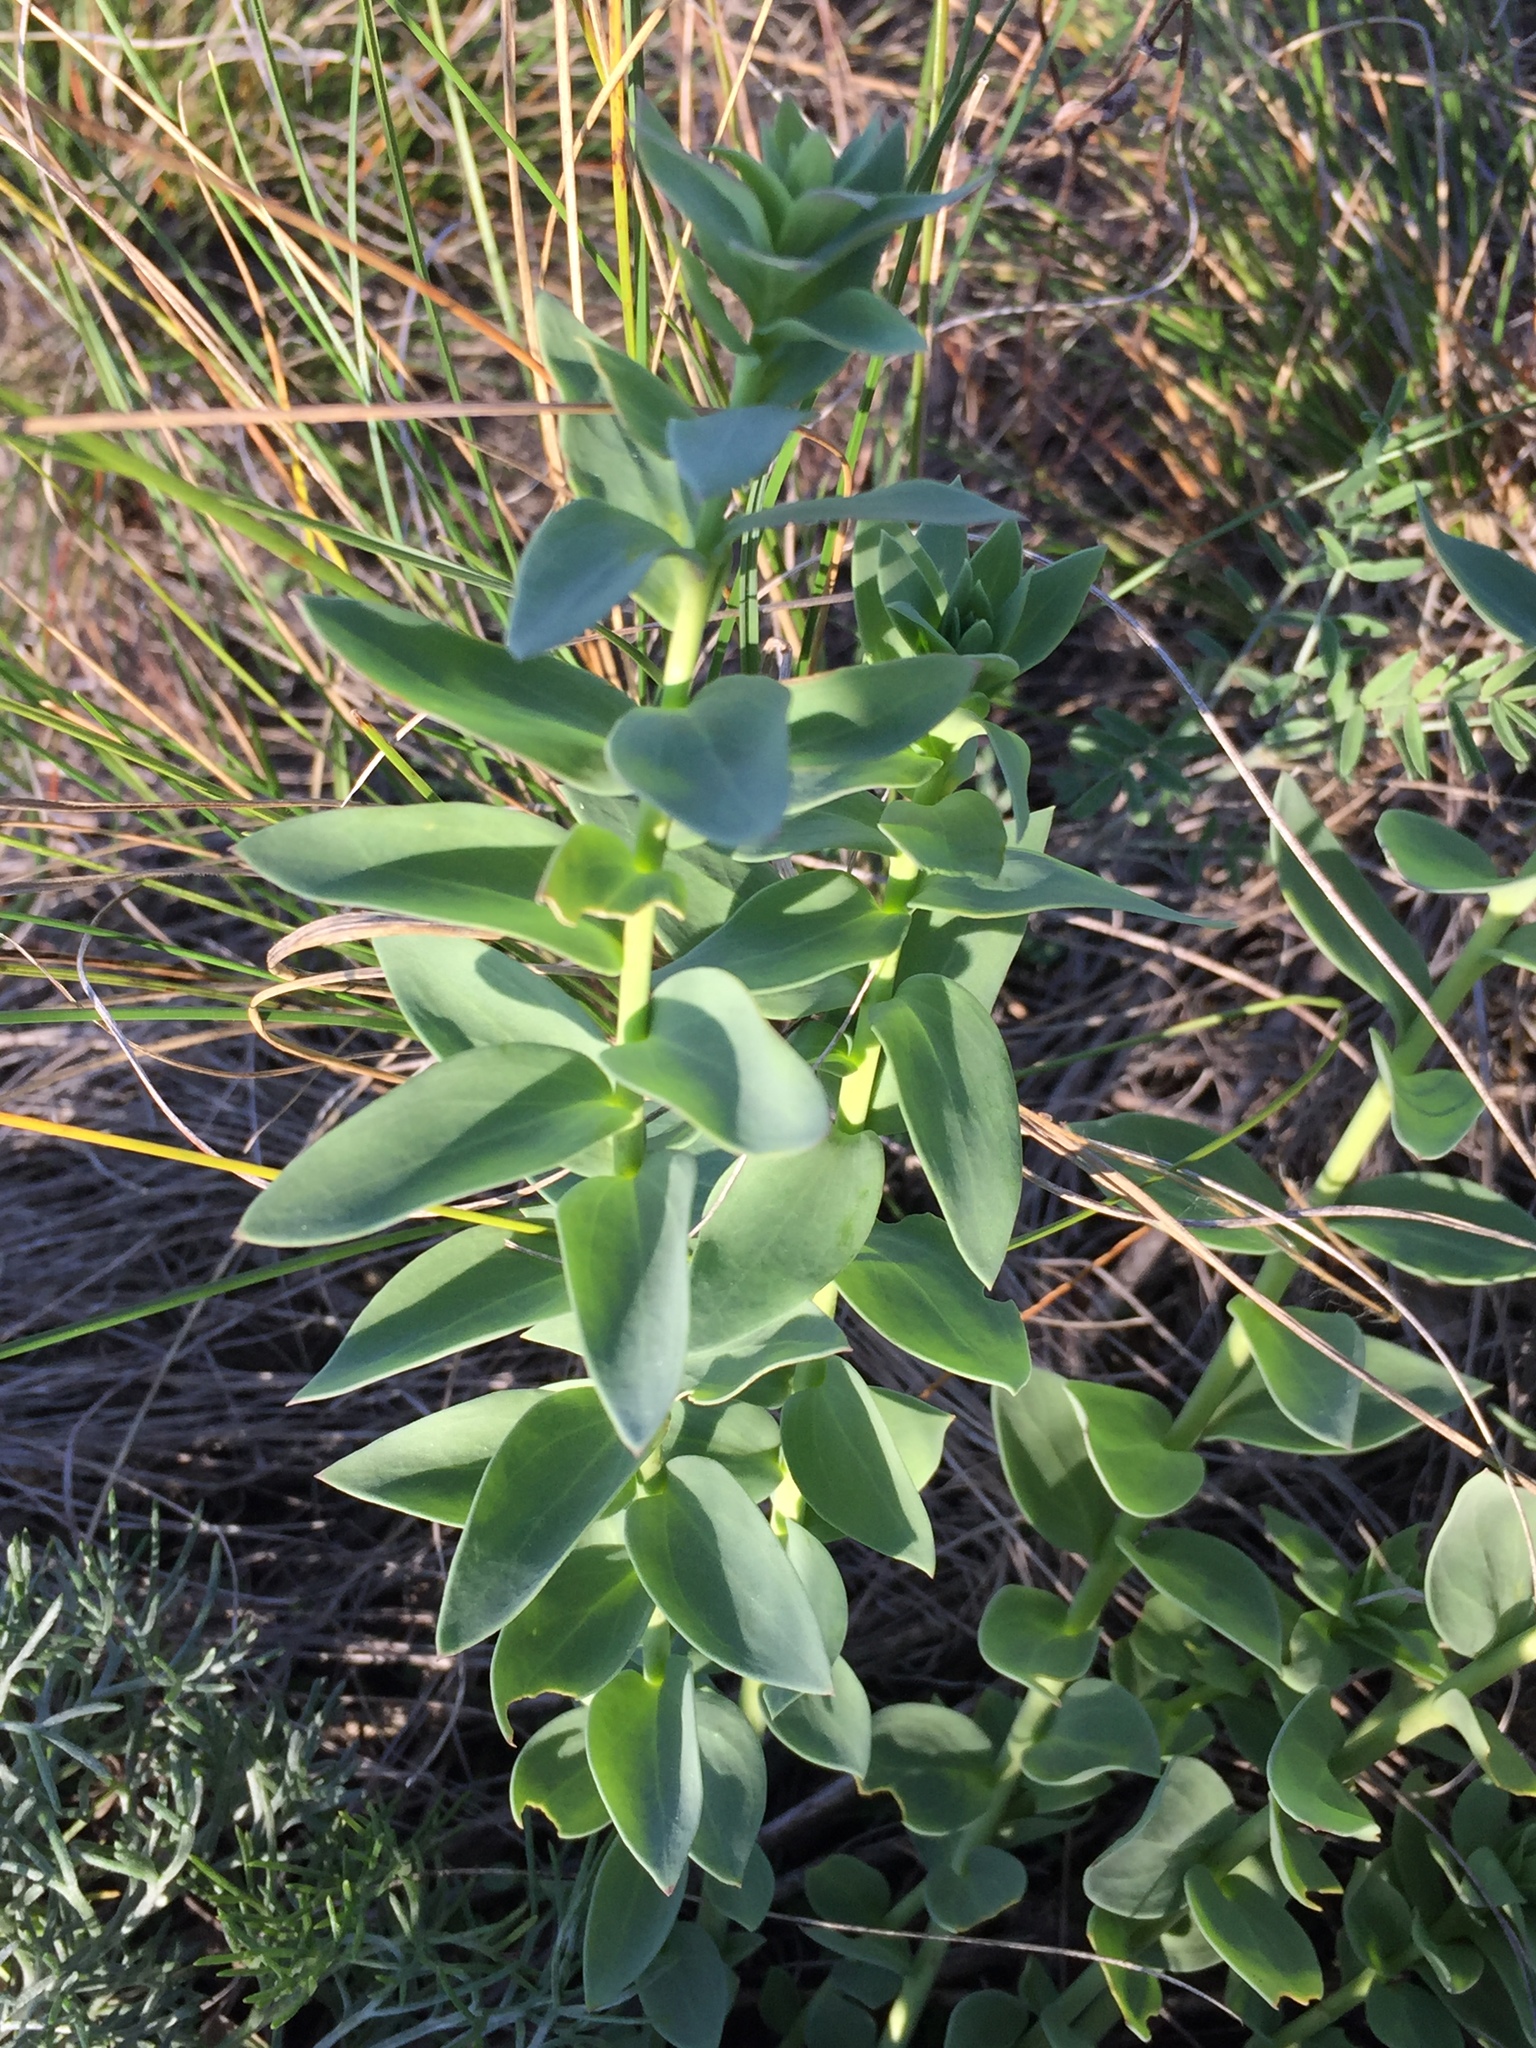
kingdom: Plantae
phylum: Tracheophyta
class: Magnoliopsida
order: Lamiales
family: Plantaginaceae
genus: Linaria
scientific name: Linaria genistifolia
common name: Broomleaf toadflax
